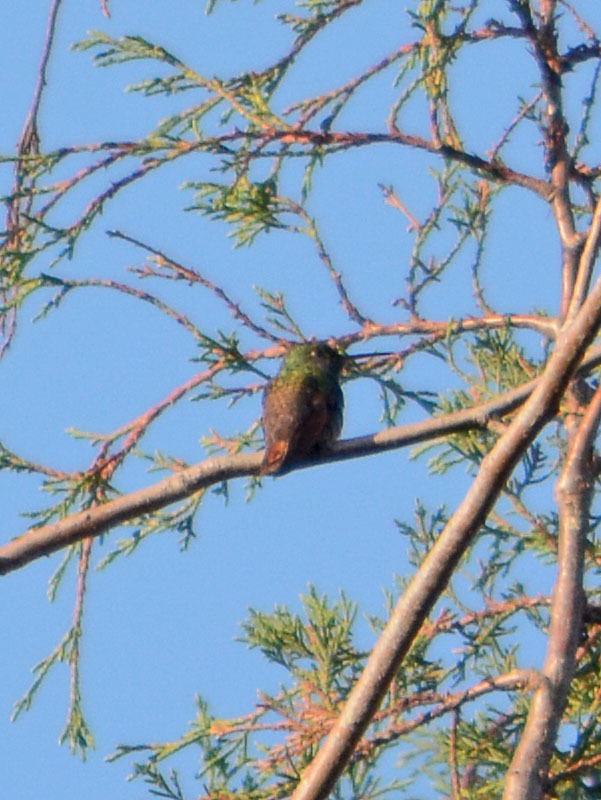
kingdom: Animalia
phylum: Chordata
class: Aves
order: Apodiformes
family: Trochilidae
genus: Saucerottia
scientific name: Saucerottia beryllina
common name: Berylline hummingbird
